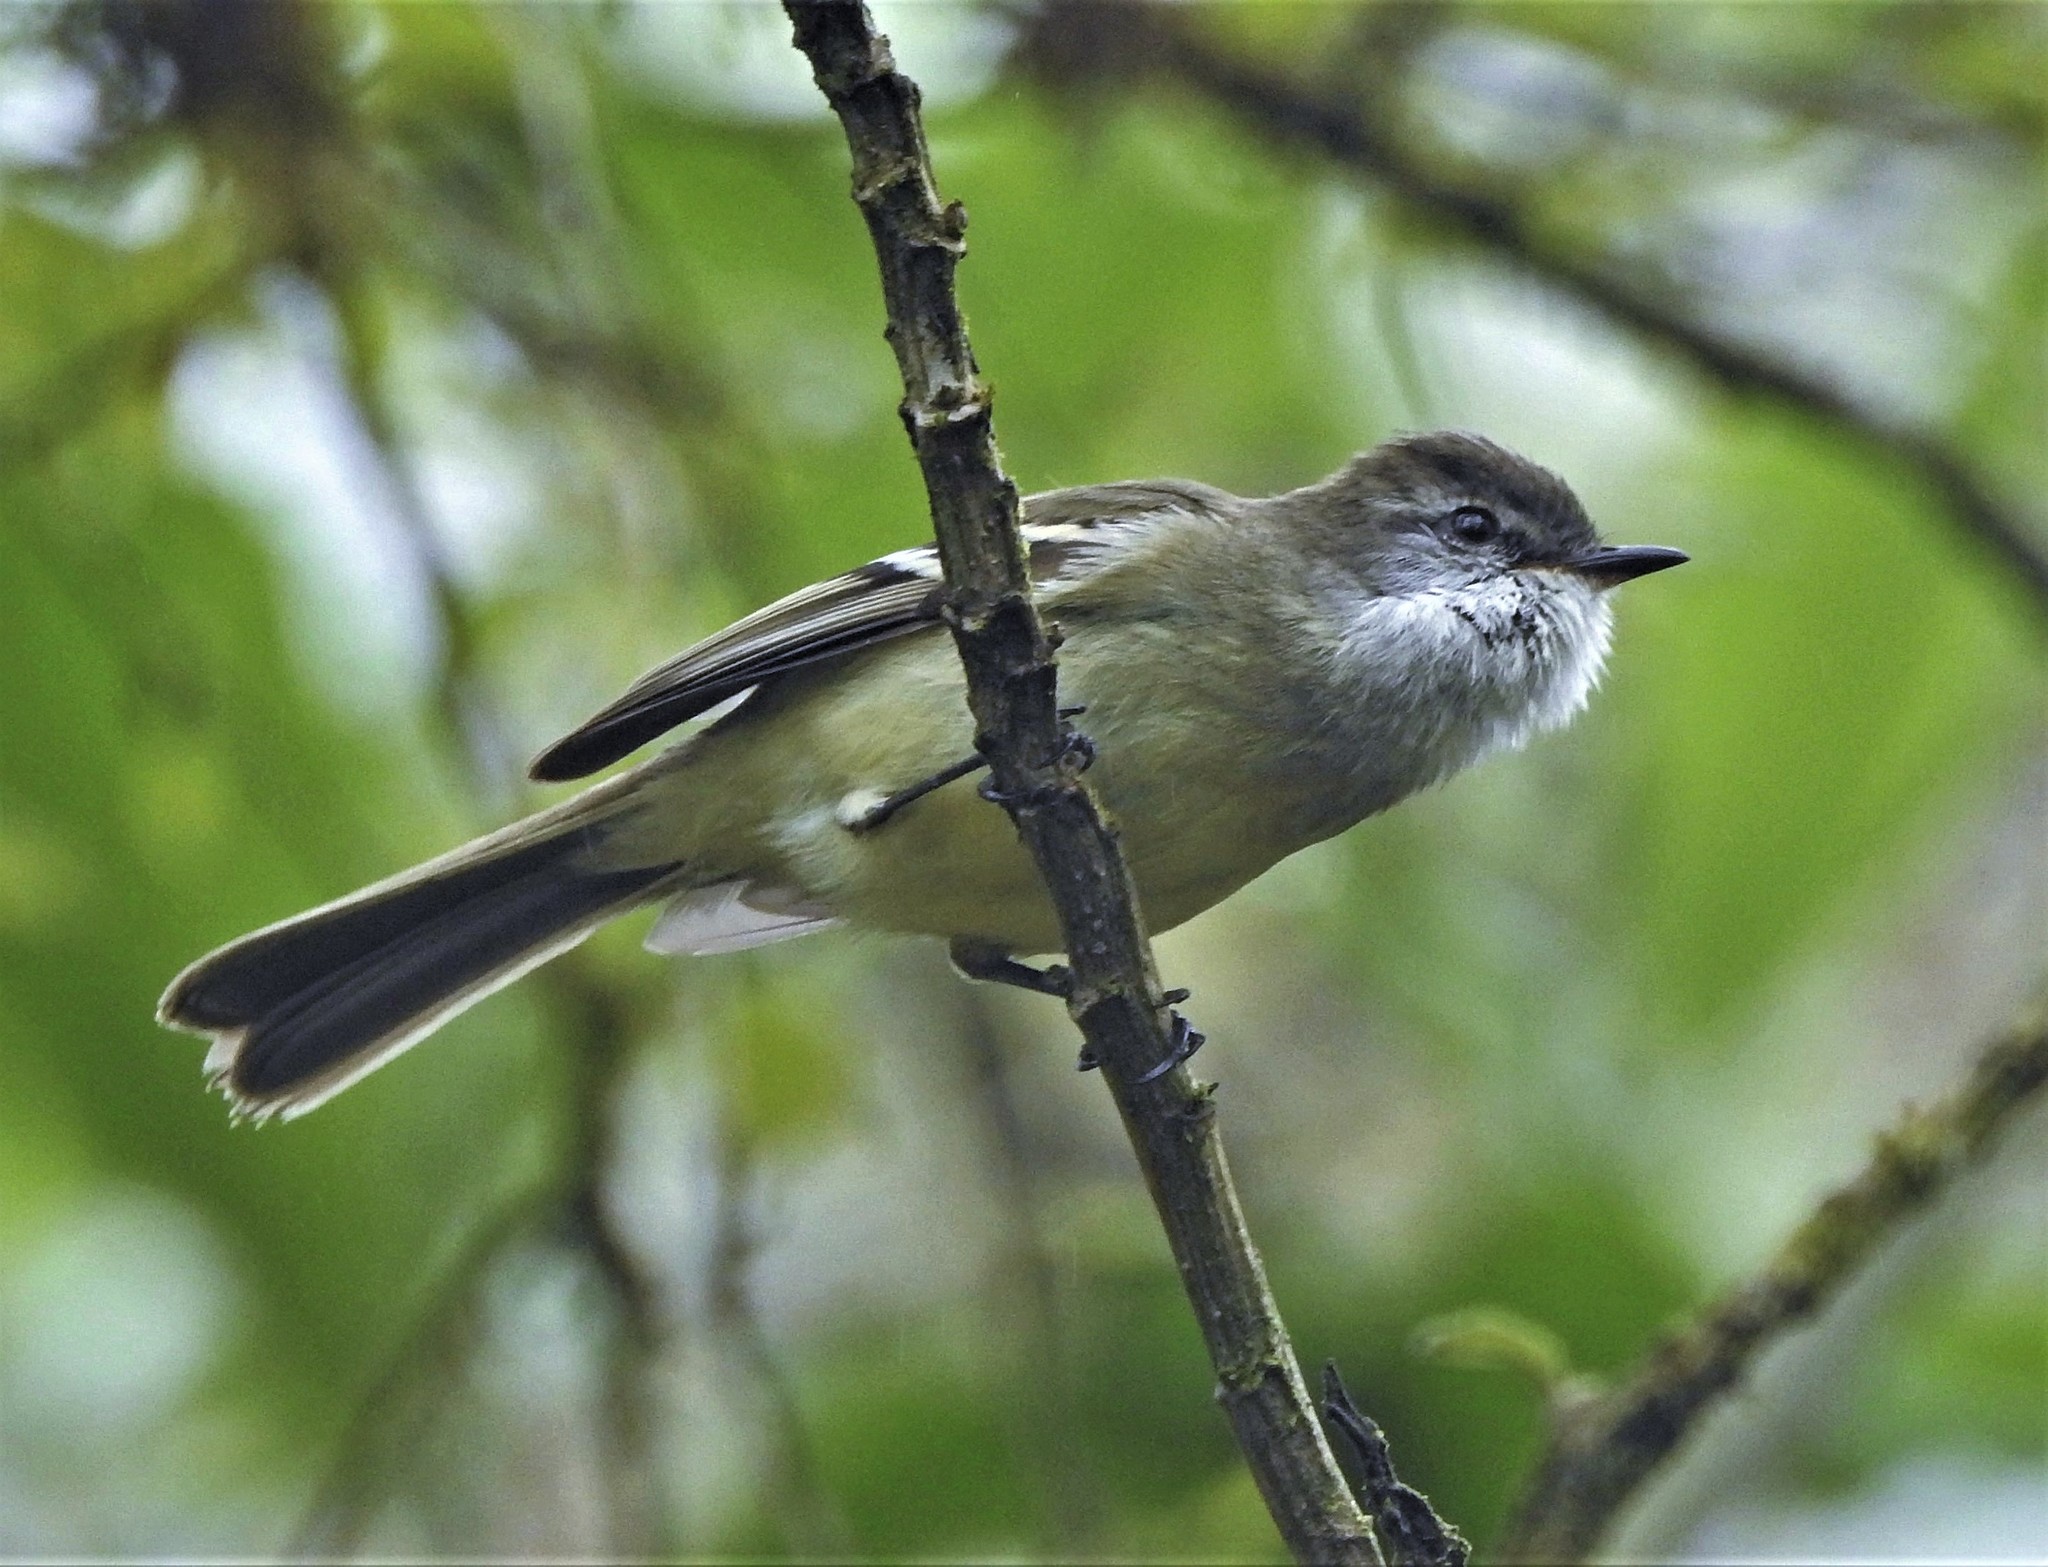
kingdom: Animalia
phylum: Chordata
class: Aves
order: Passeriformes
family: Tyrannidae
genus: Mecocerculus
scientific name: Mecocerculus leucophrys
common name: White-throated tyrannulet
